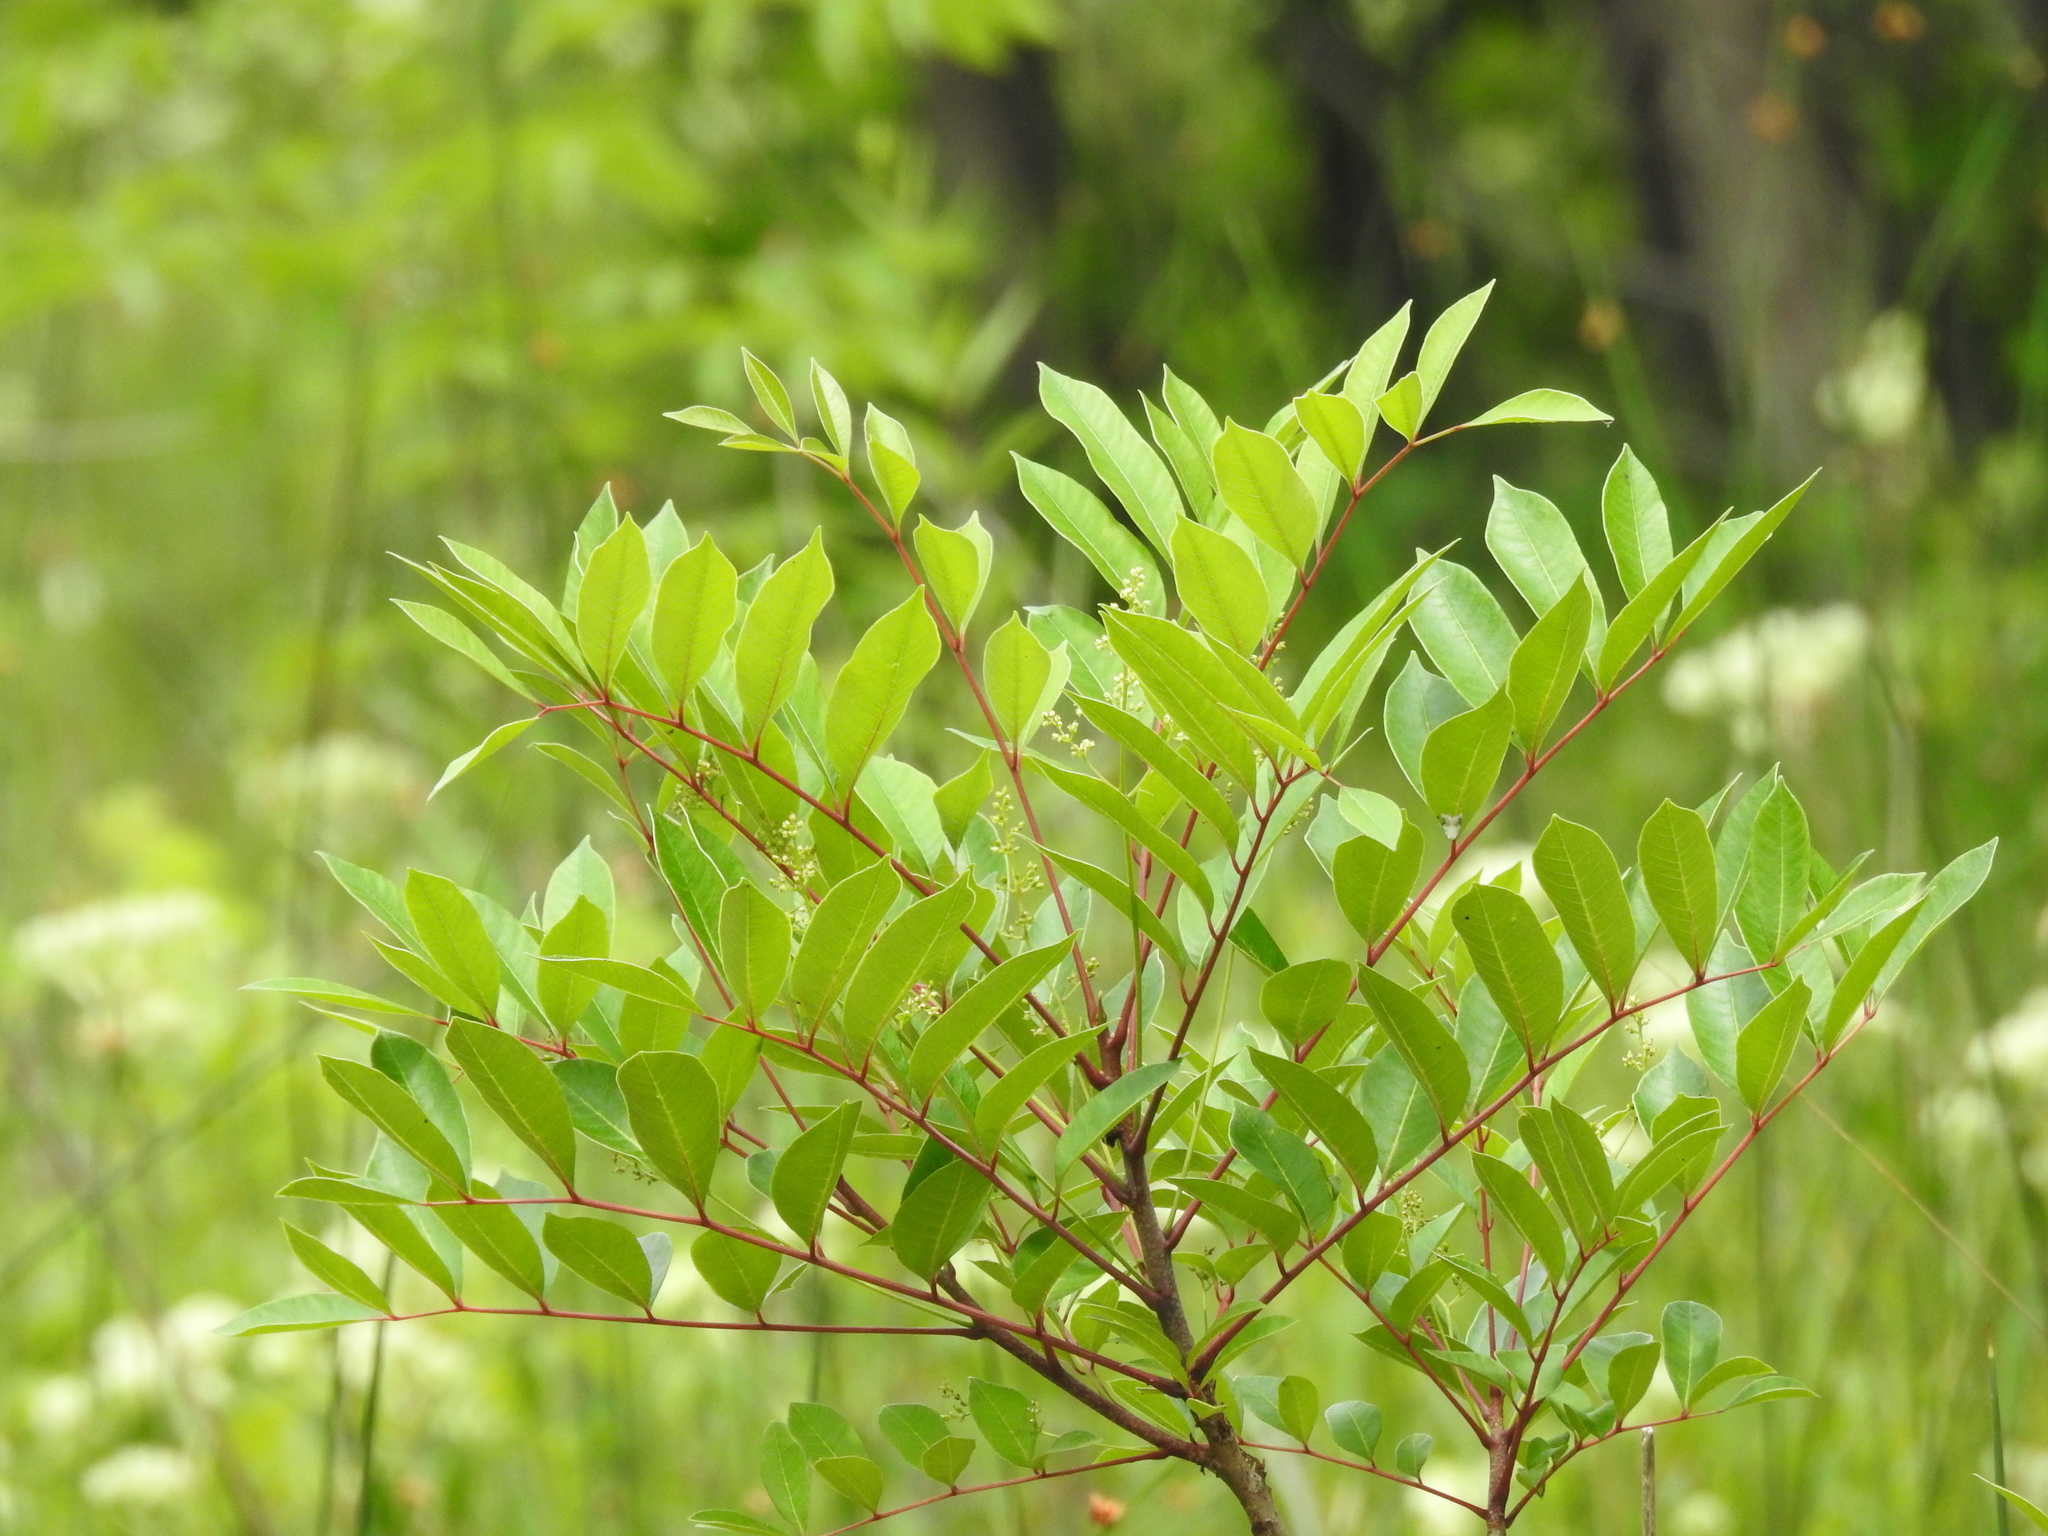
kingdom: Plantae
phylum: Tracheophyta
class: Magnoliopsida
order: Sapindales
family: Anacardiaceae
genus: Toxicodendron
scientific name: Toxicodendron vernix
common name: Poison sumac
